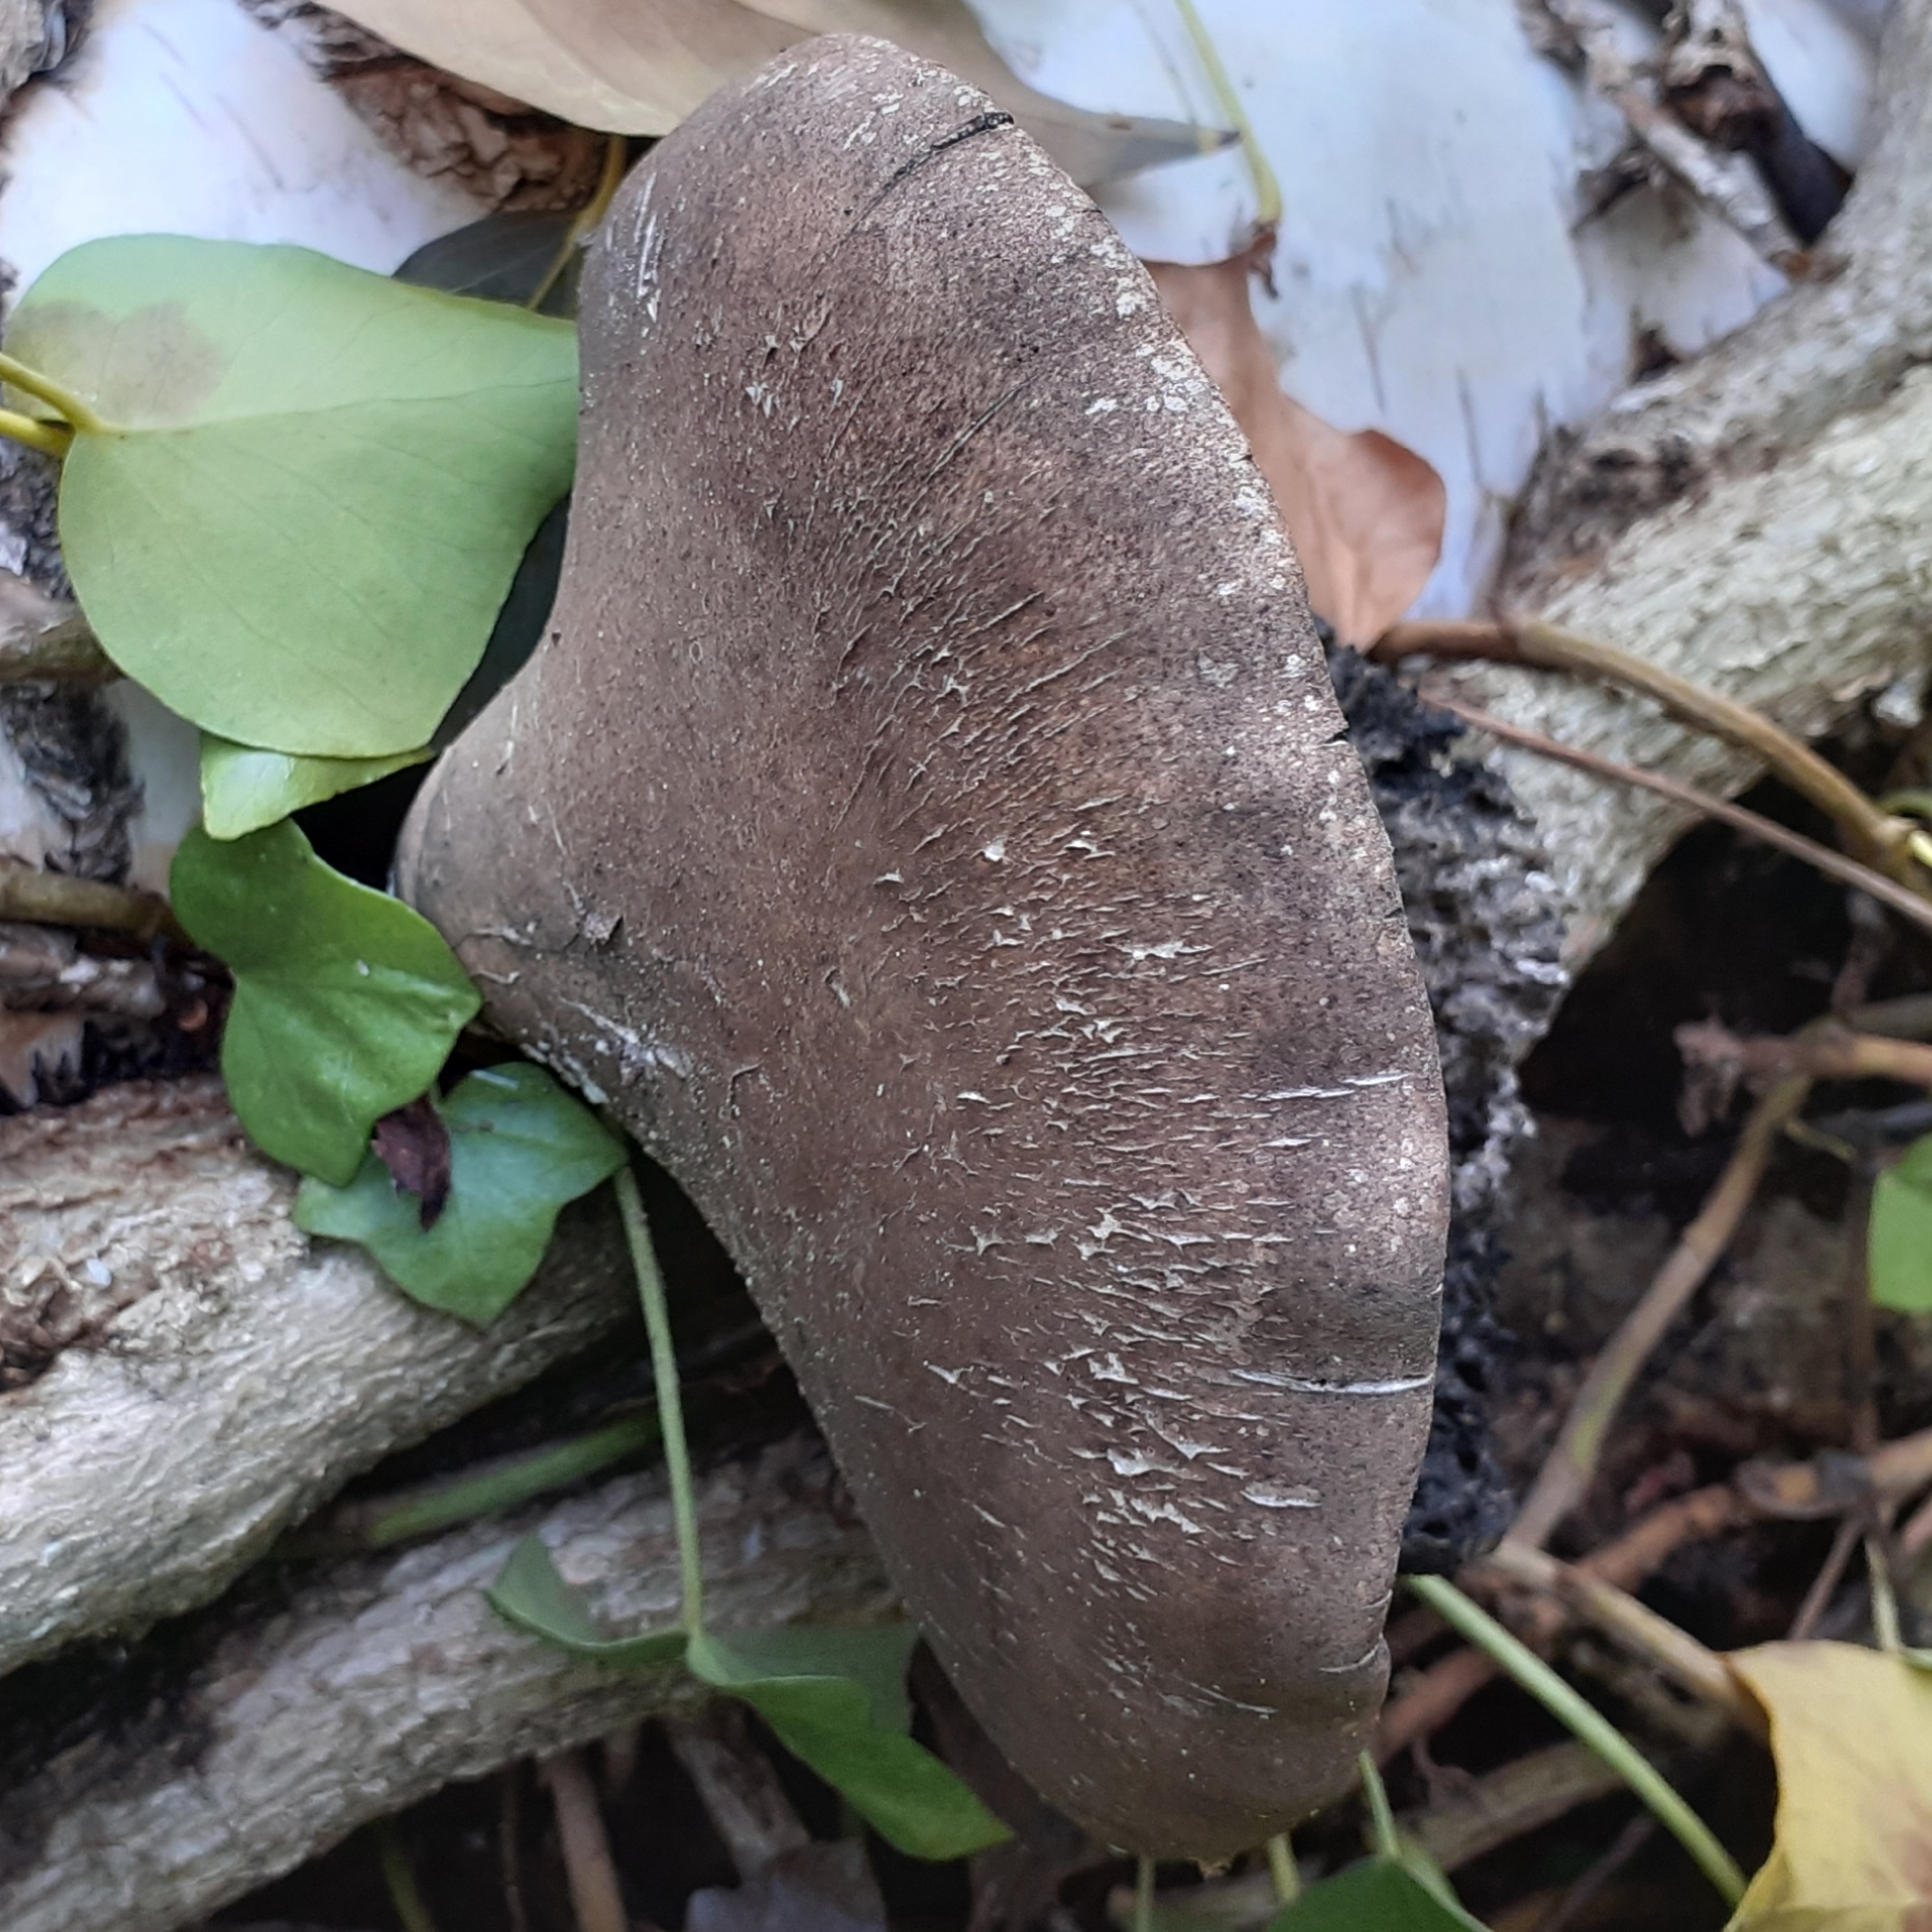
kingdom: Fungi
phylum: Basidiomycota
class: Agaricomycetes
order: Polyporales
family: Fomitopsidaceae
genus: Fomitopsis
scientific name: Fomitopsis betulina
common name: Birch polypore
